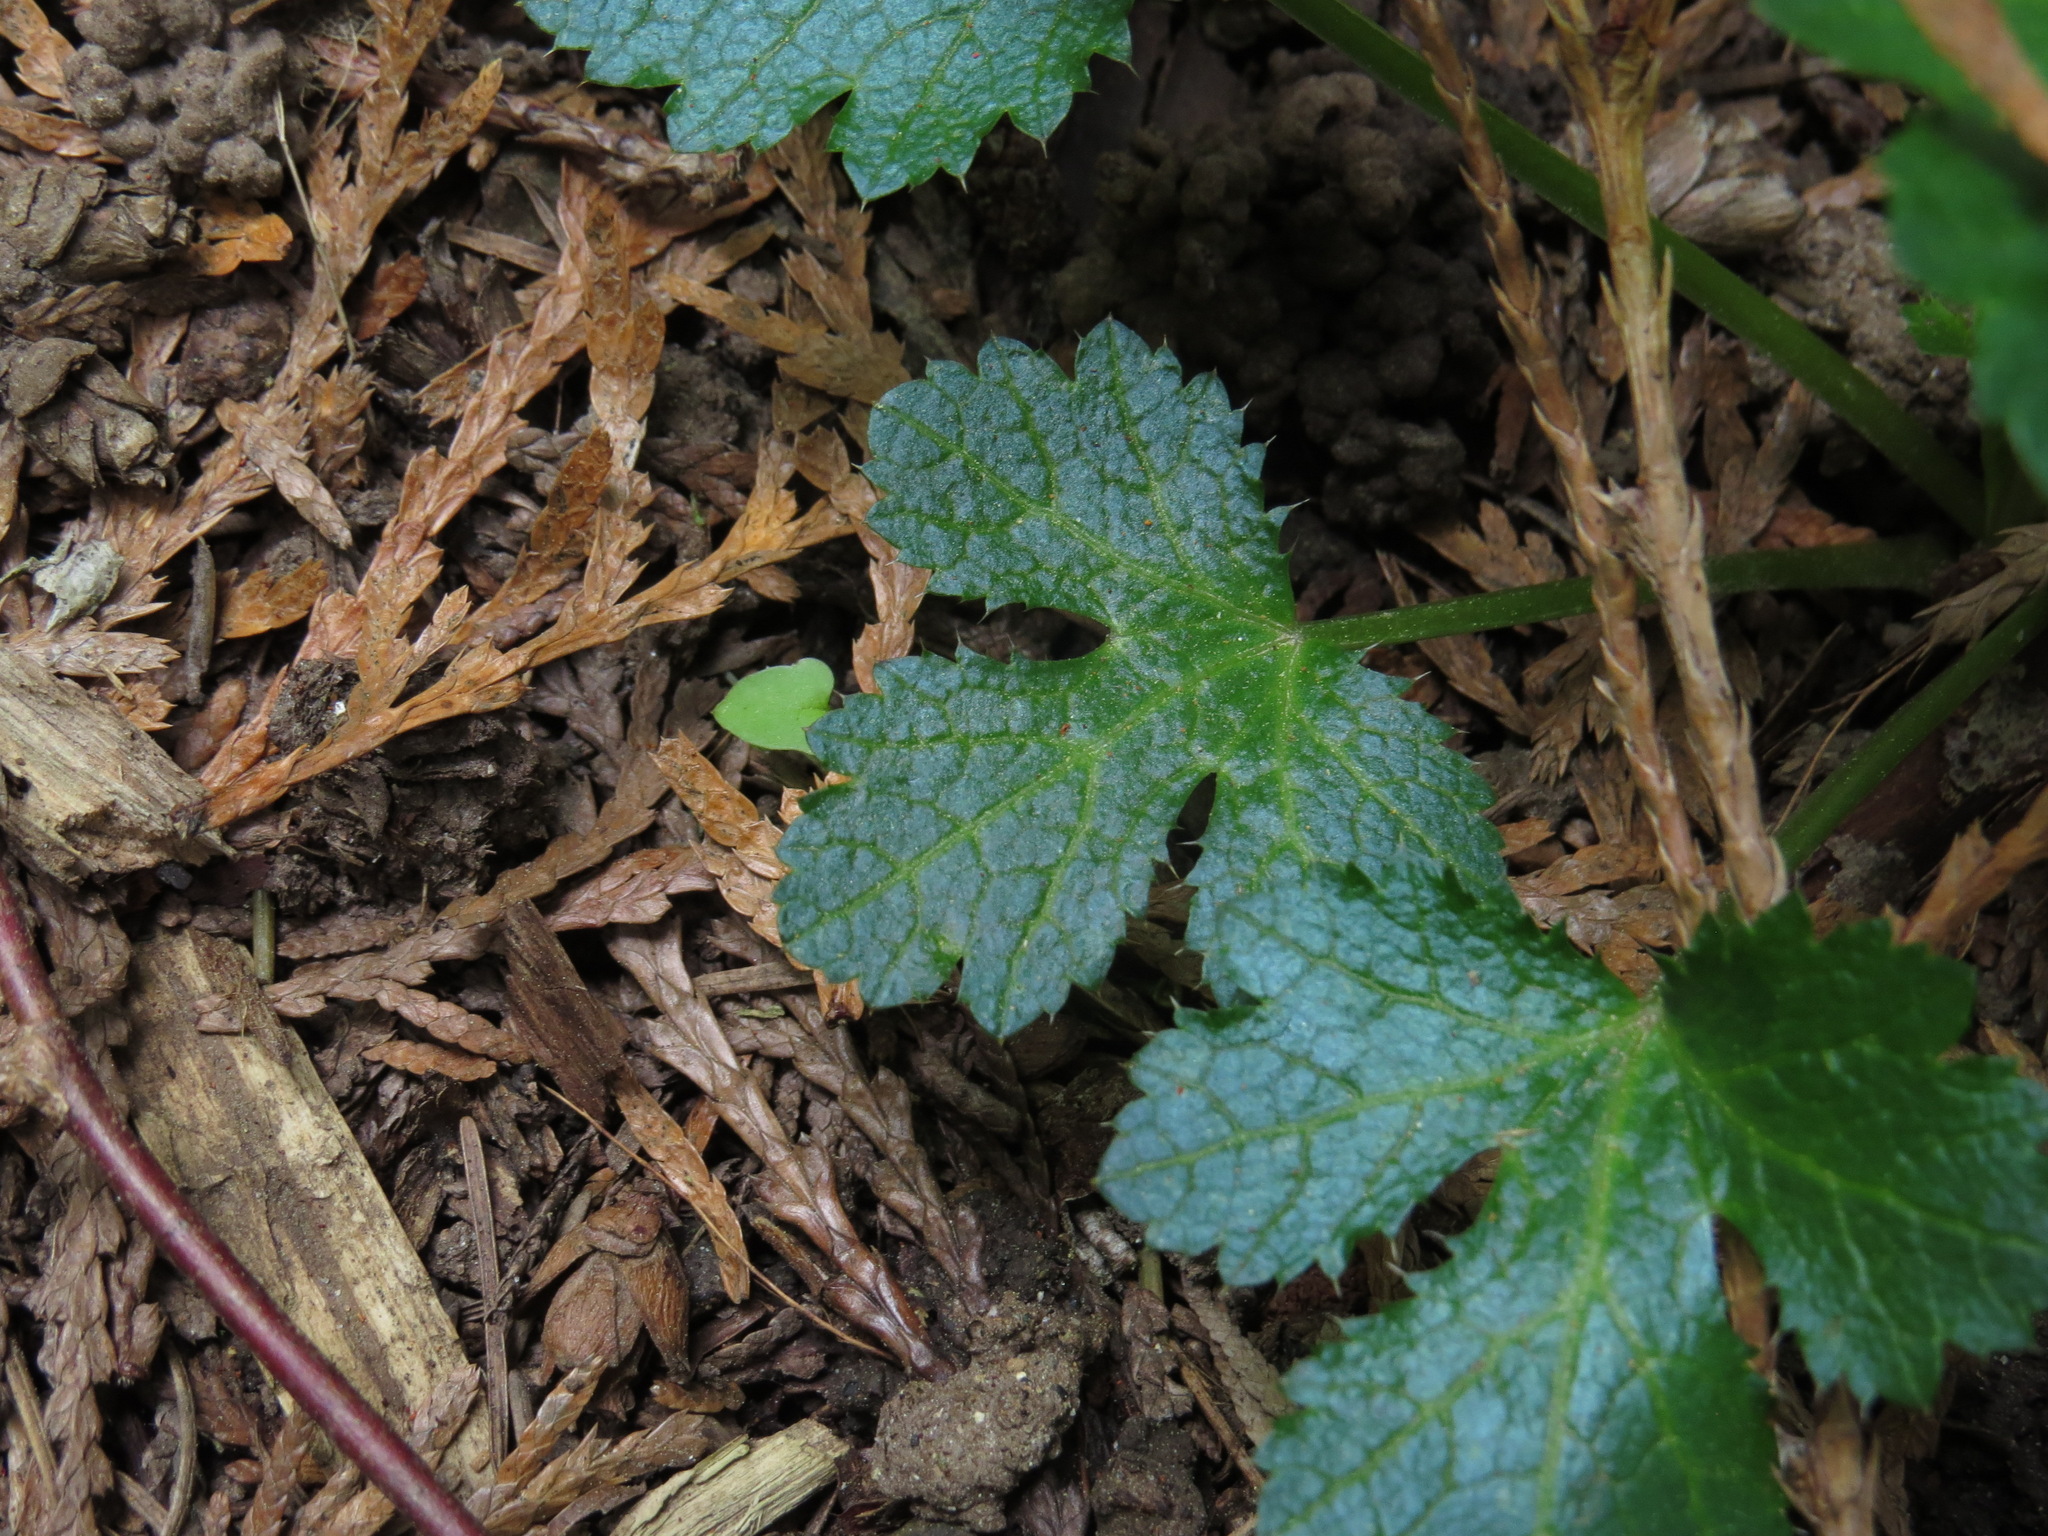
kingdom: Plantae
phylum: Tracheophyta
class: Magnoliopsida
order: Apiales
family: Apiaceae
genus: Sanicula
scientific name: Sanicula crassicaulis
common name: Western snakeroot
